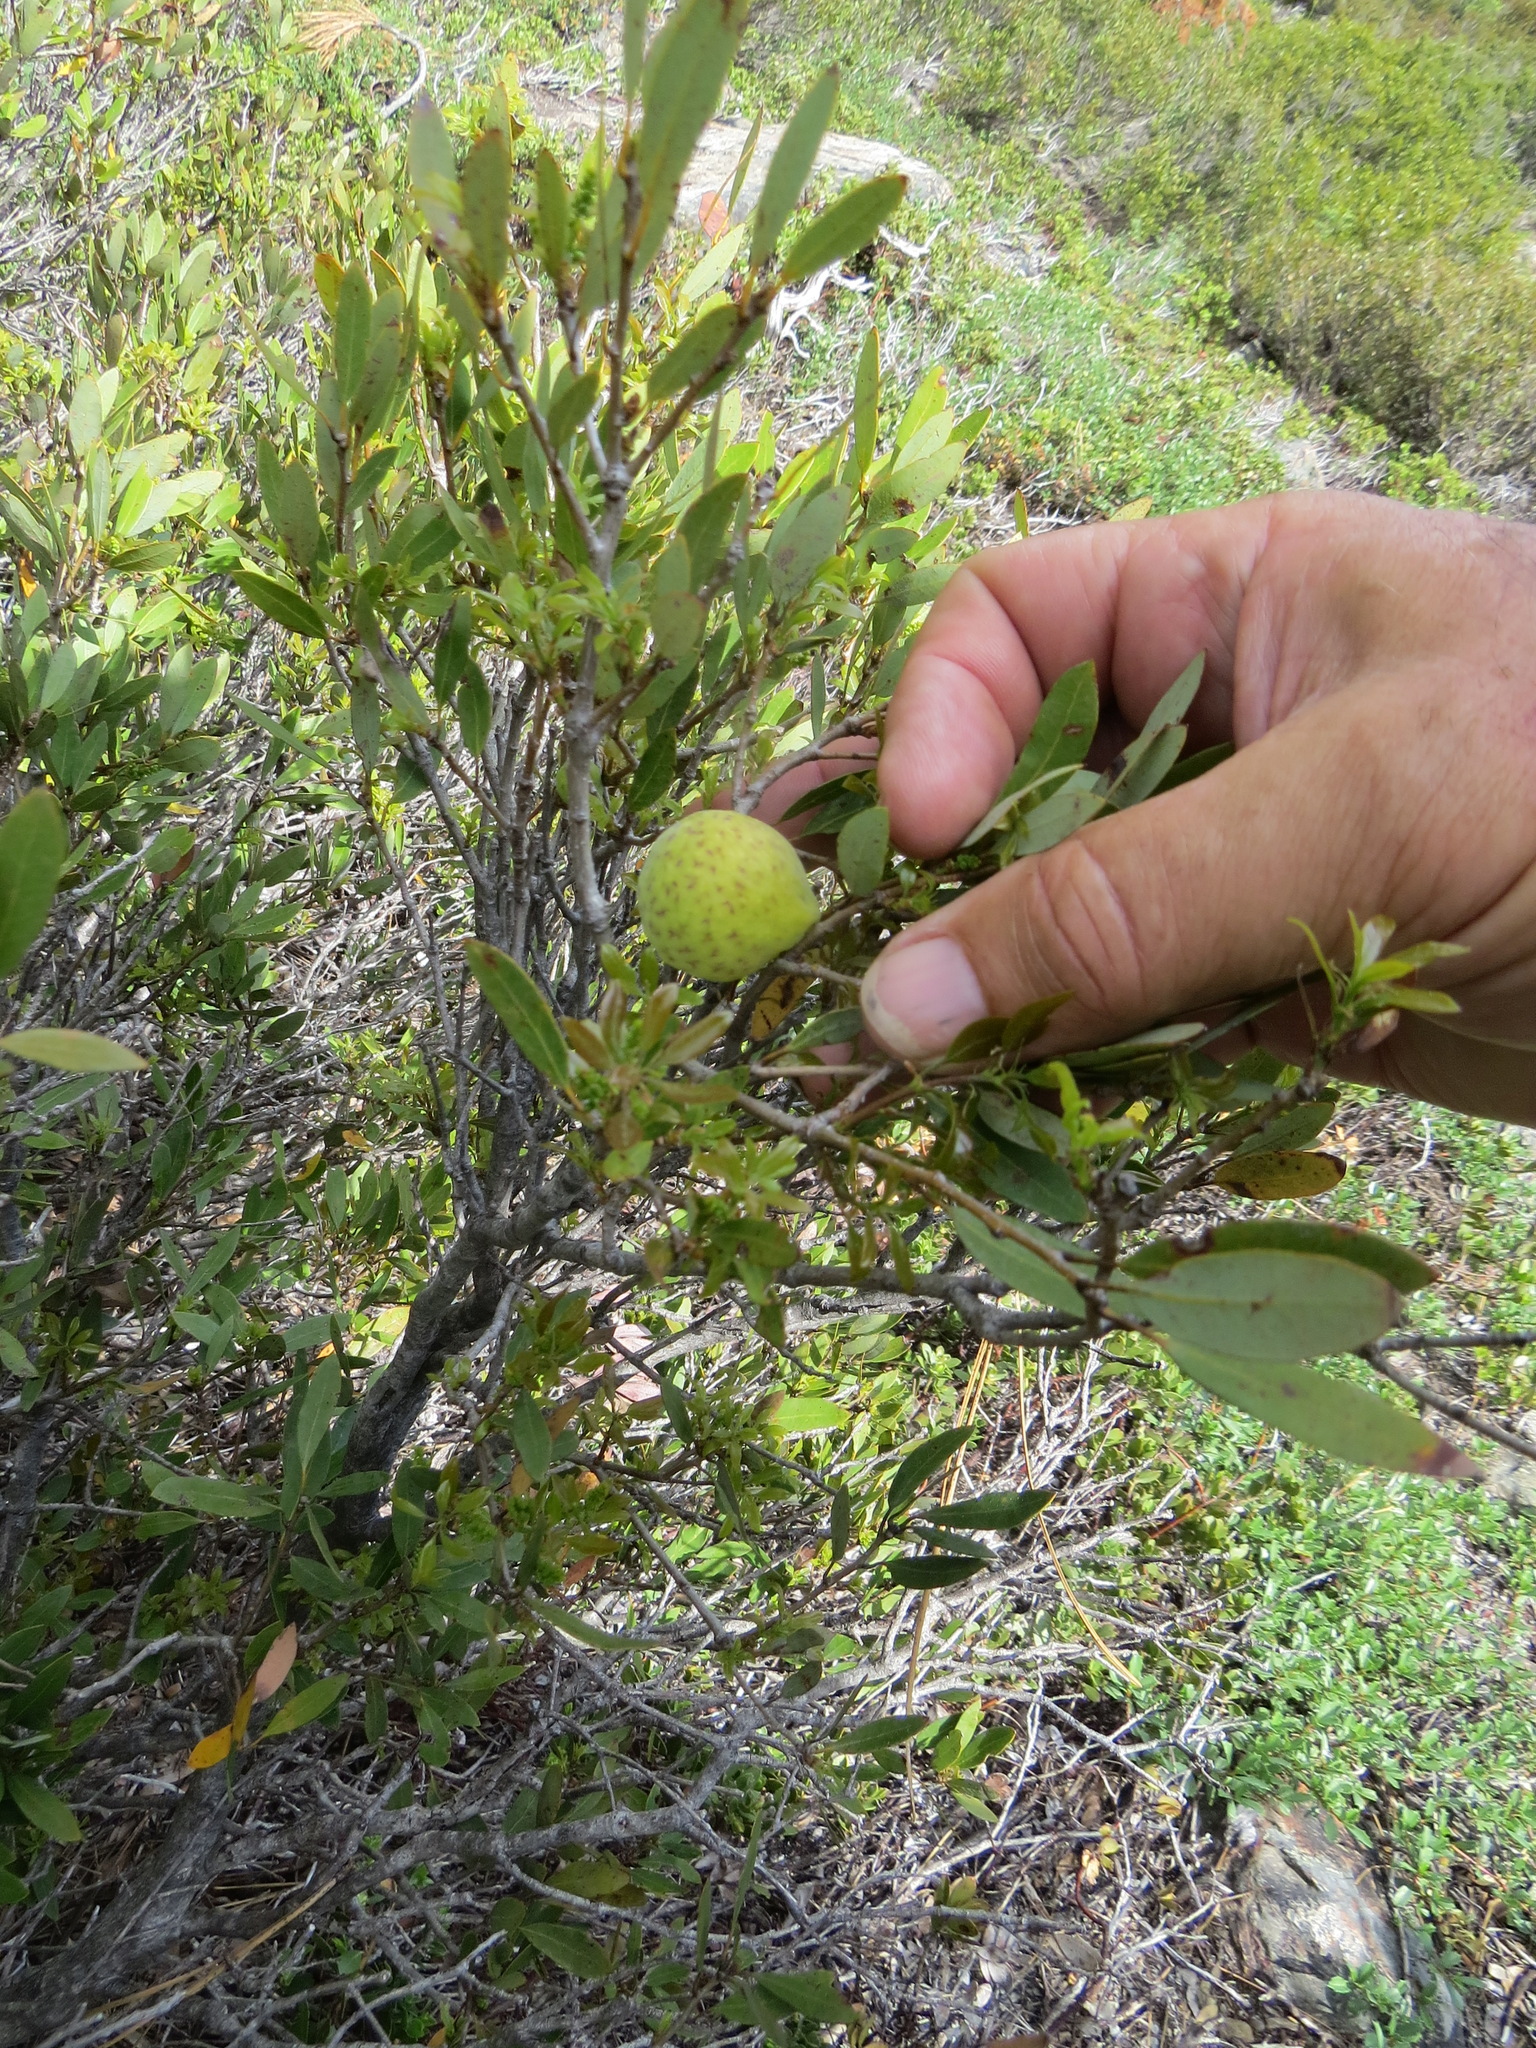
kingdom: Animalia
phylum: Arthropoda
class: Insecta
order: Hymenoptera
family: Cynipidae
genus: Andricus
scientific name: Andricus
